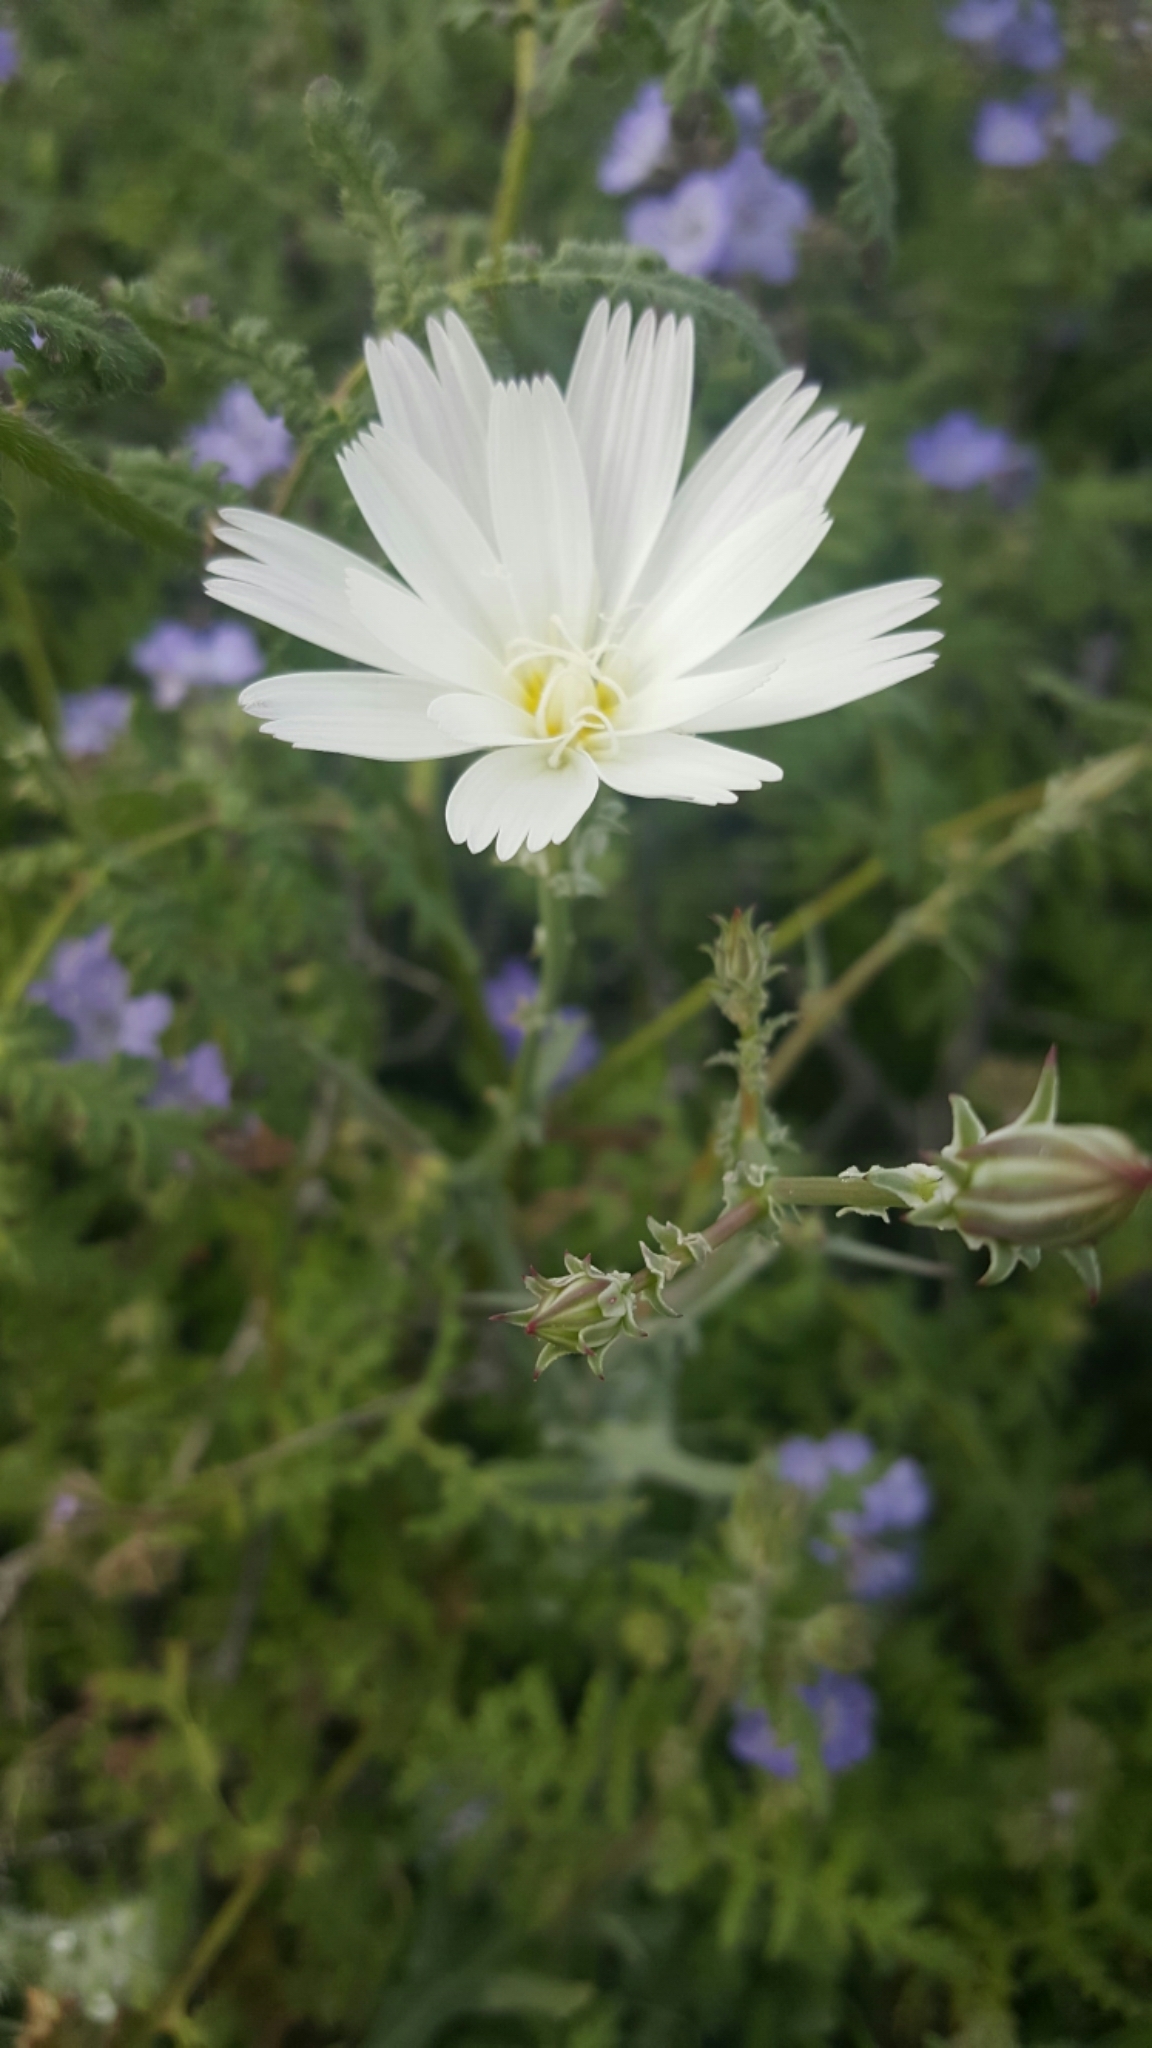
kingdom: Plantae
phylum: Tracheophyta
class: Magnoliopsida
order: Asterales
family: Asteraceae
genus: Rafinesquia
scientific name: Rafinesquia neomexicana
